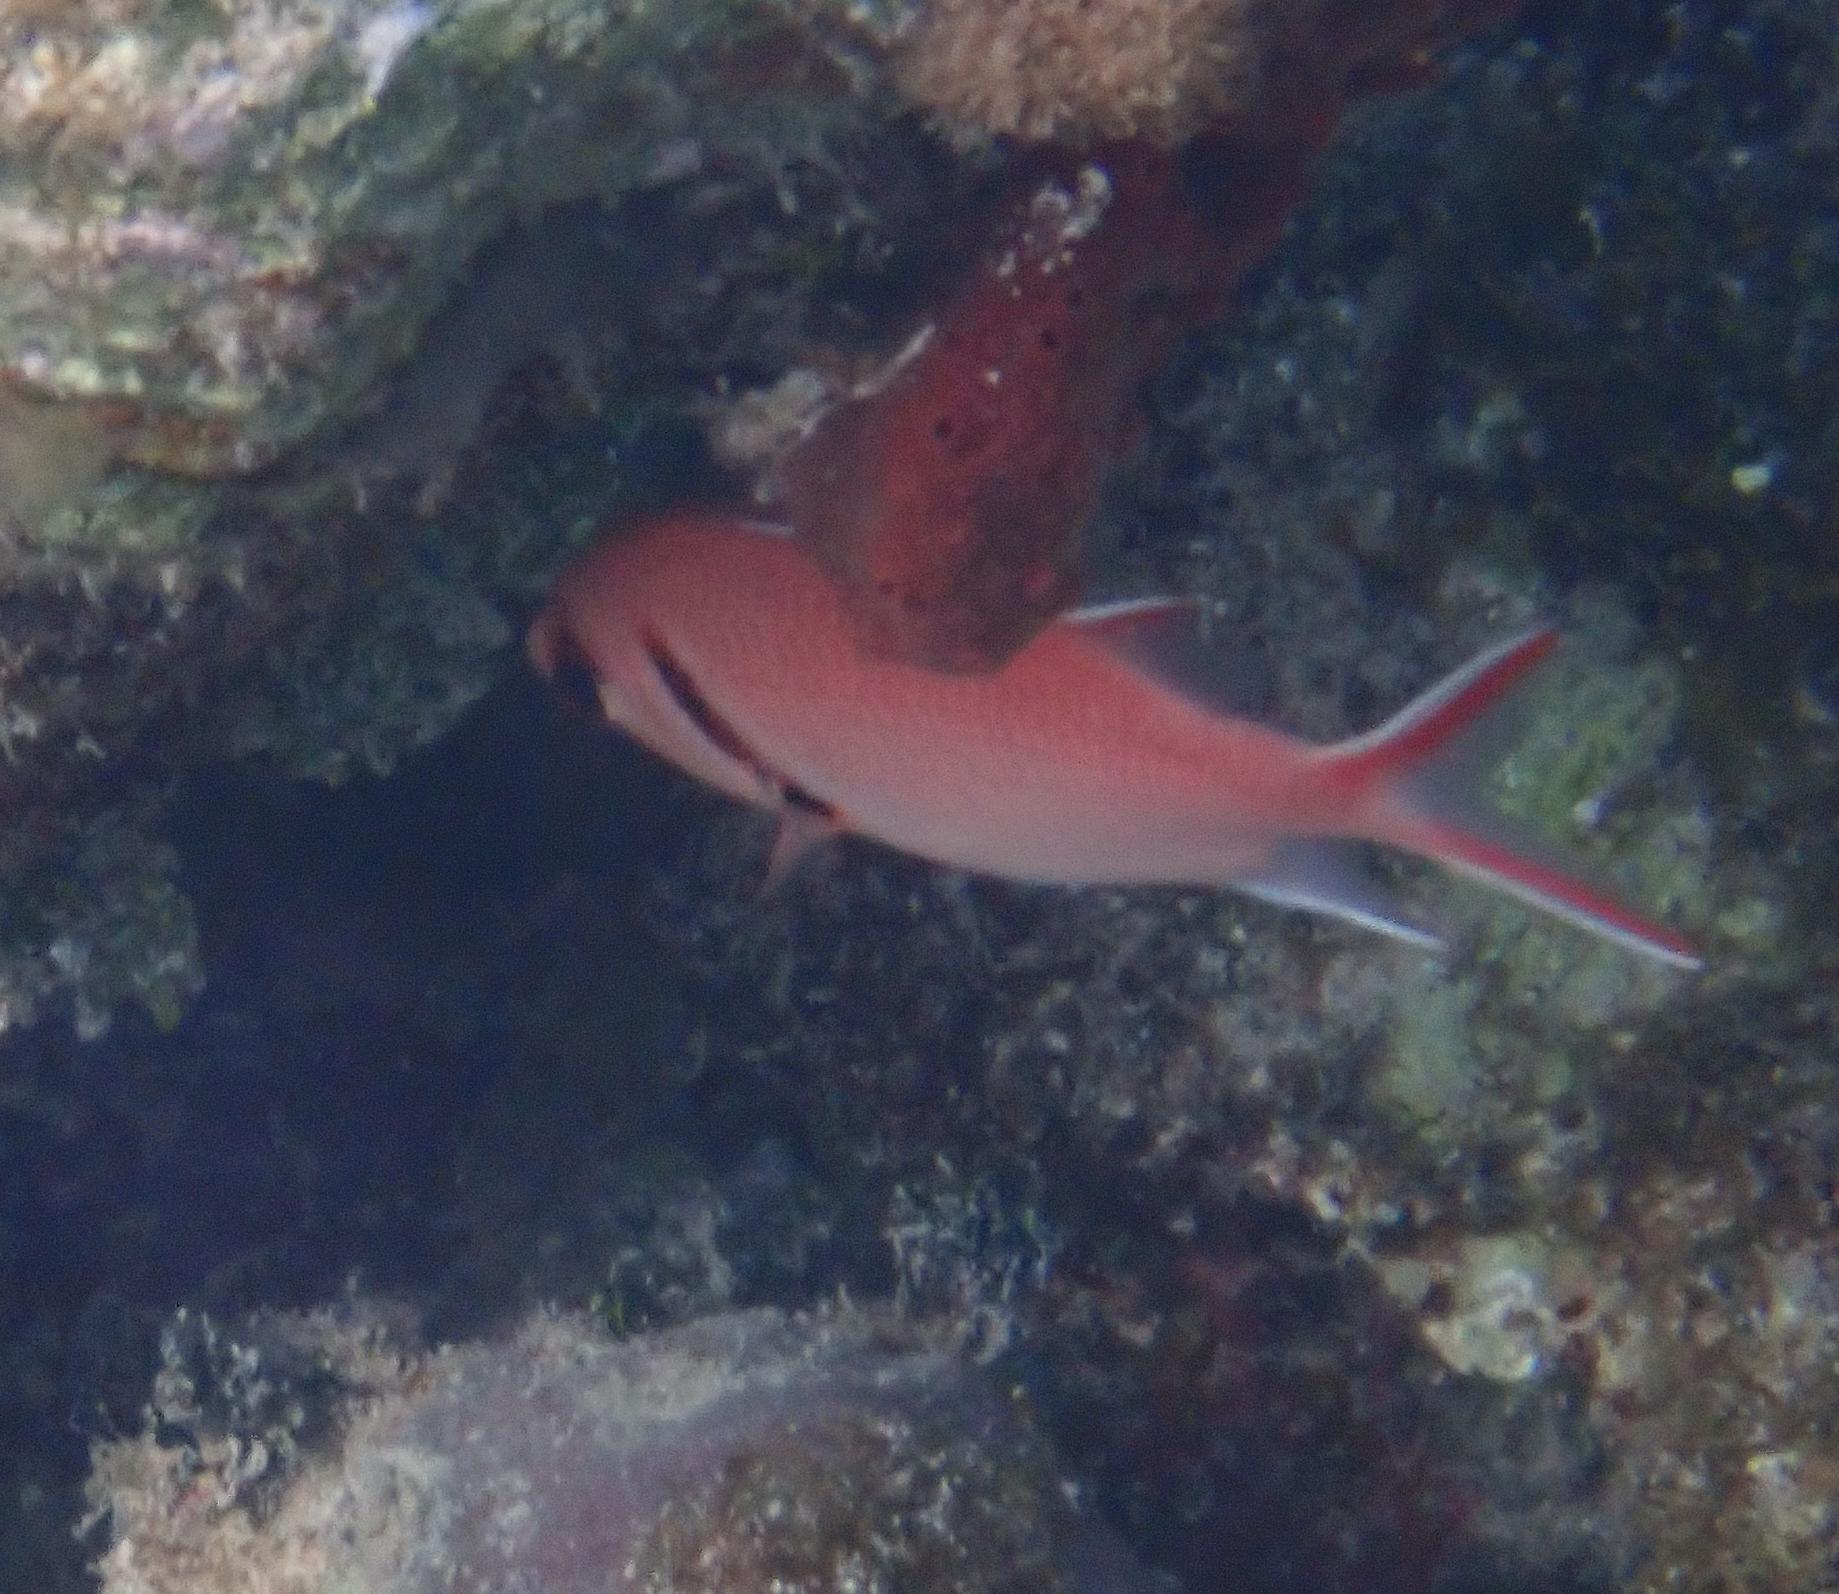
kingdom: Animalia
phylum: Chordata
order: Beryciformes
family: Holocentridae
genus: Myripristis
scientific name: Myripristis jacobus
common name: Blackbar soldierfish
